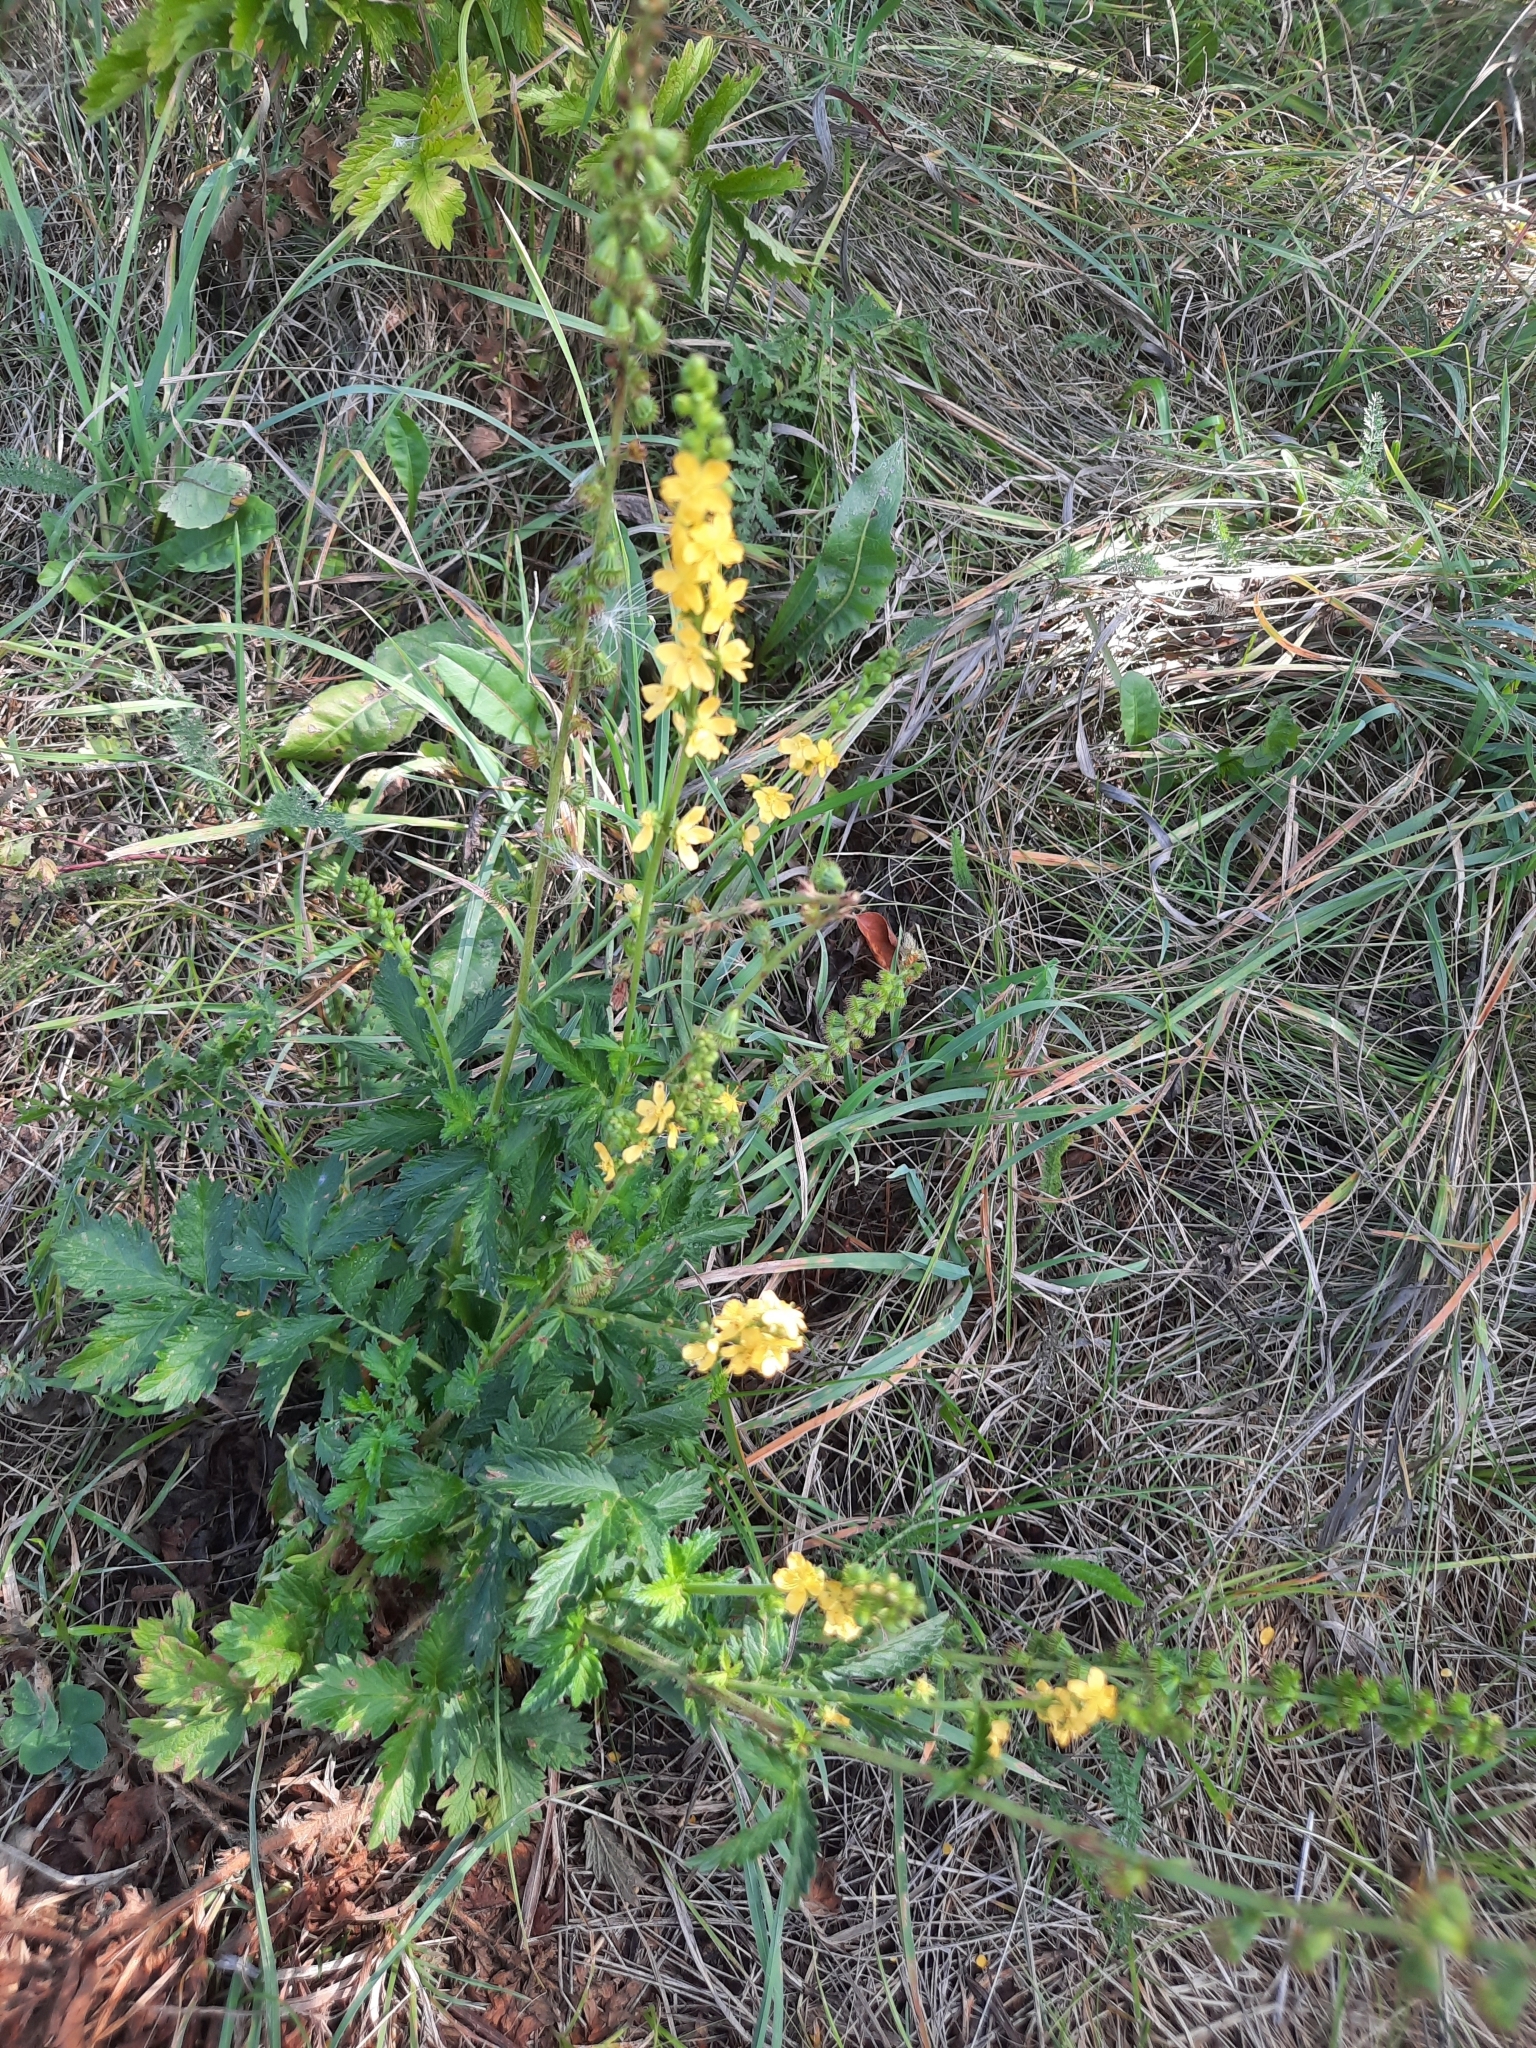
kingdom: Plantae
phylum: Tracheophyta
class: Magnoliopsida
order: Rosales
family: Rosaceae
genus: Agrimonia
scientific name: Agrimonia eupatoria
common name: Agrimony
